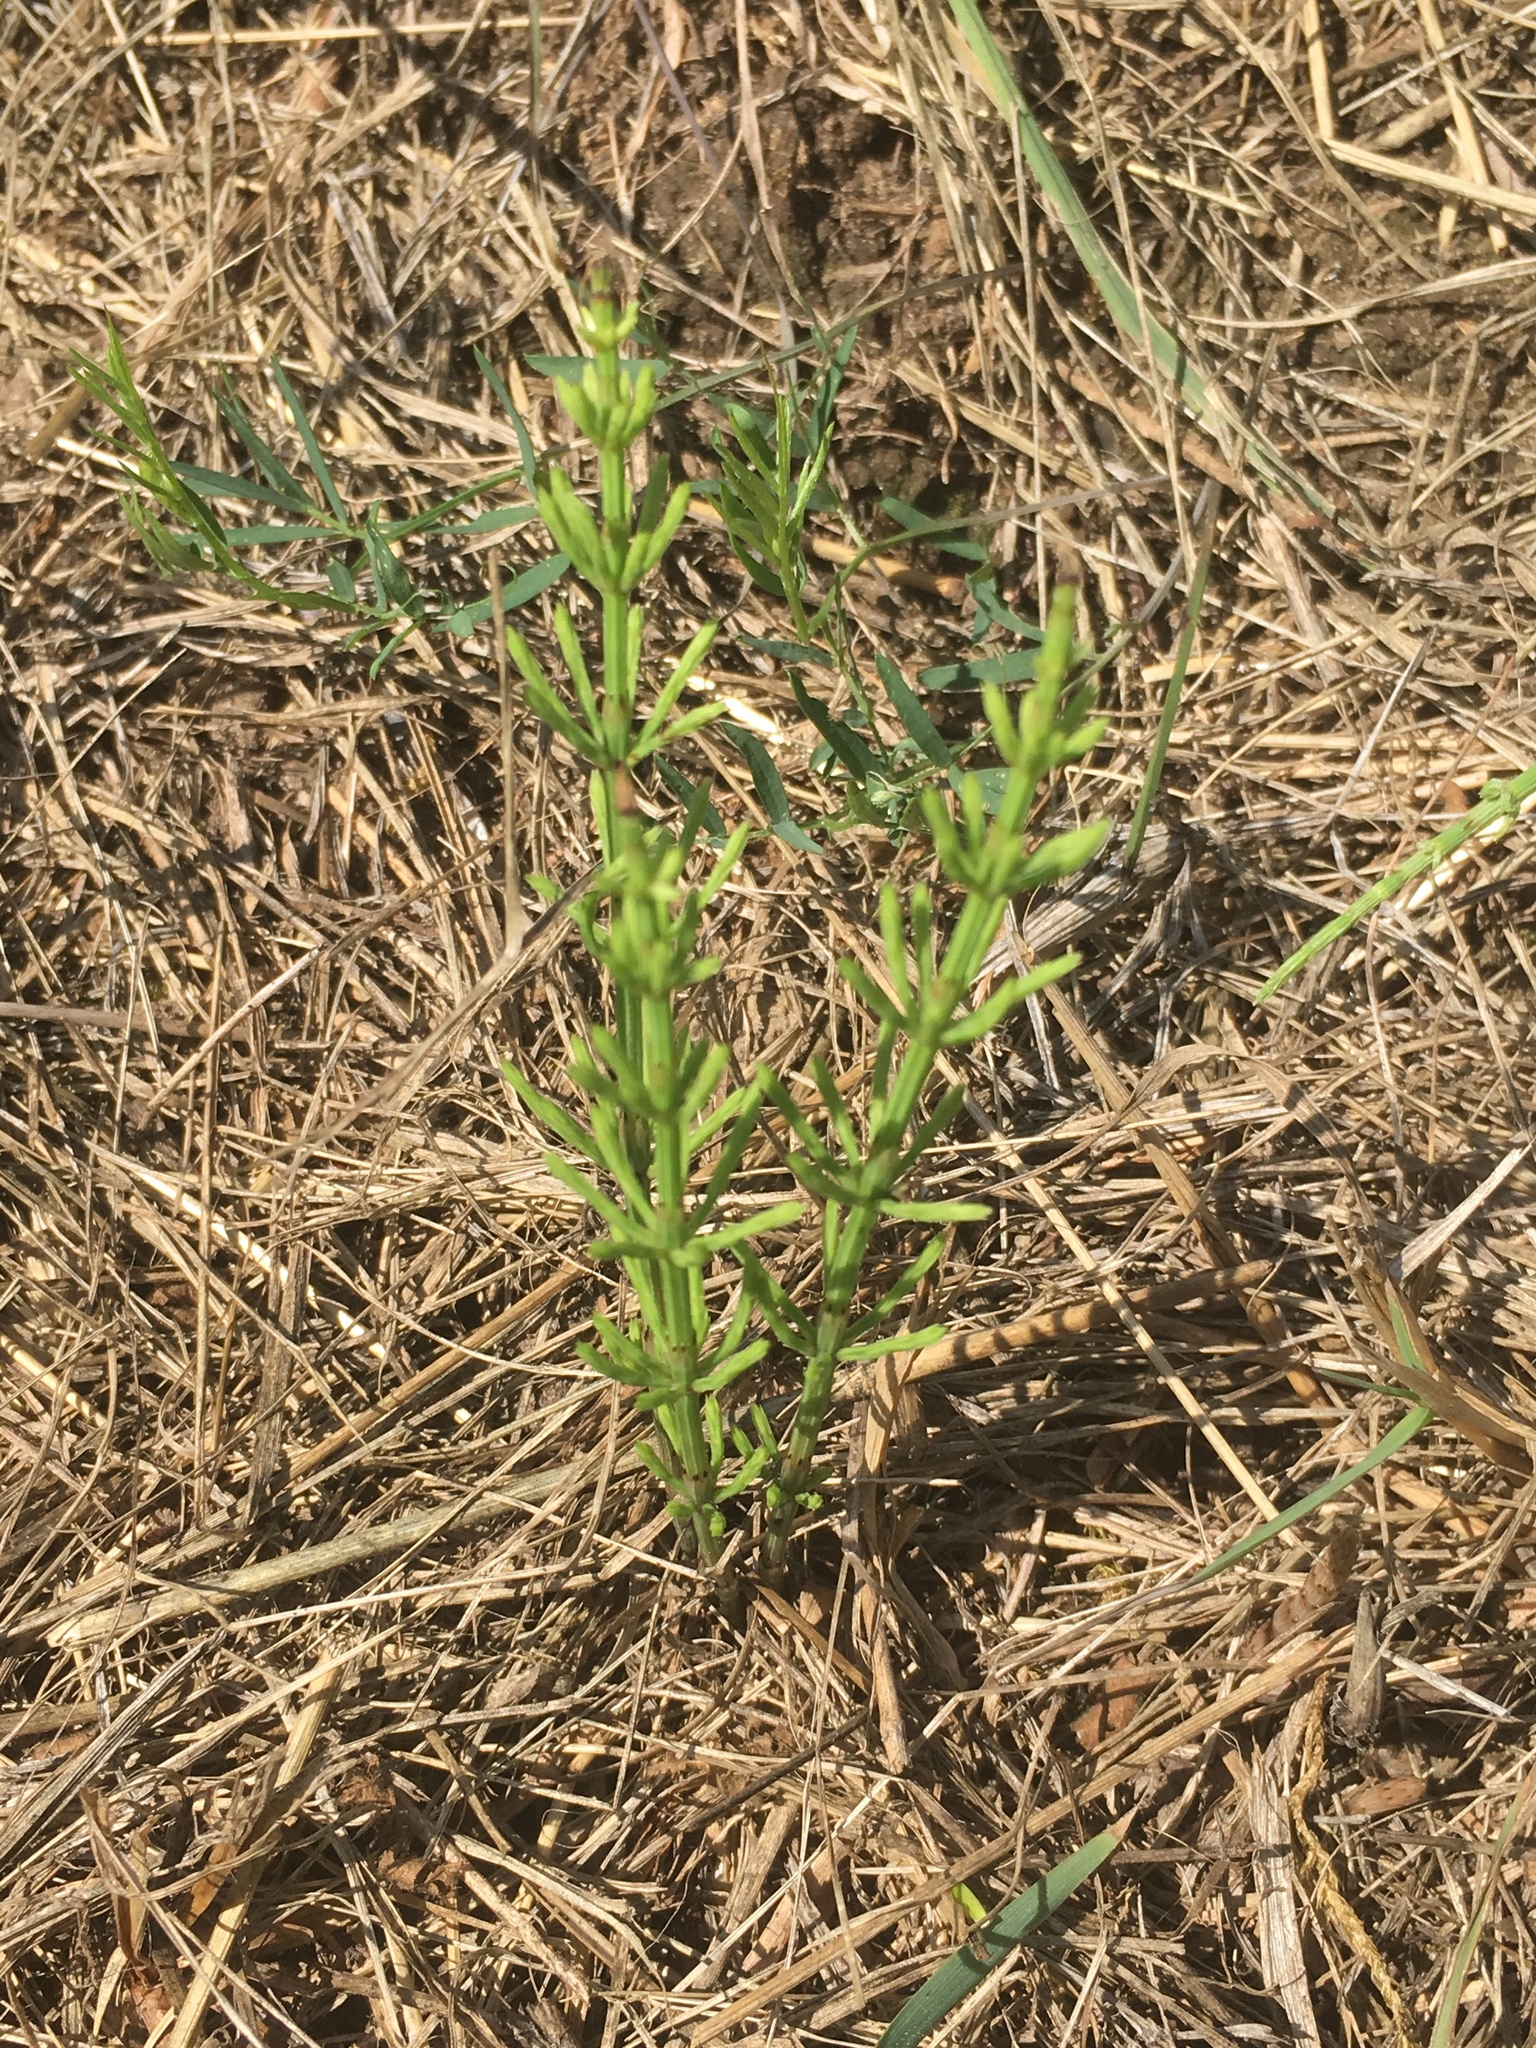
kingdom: Plantae
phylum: Tracheophyta
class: Polypodiopsida
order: Equisetales
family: Equisetaceae
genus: Equisetum
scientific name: Equisetum arvense
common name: Field horsetail
